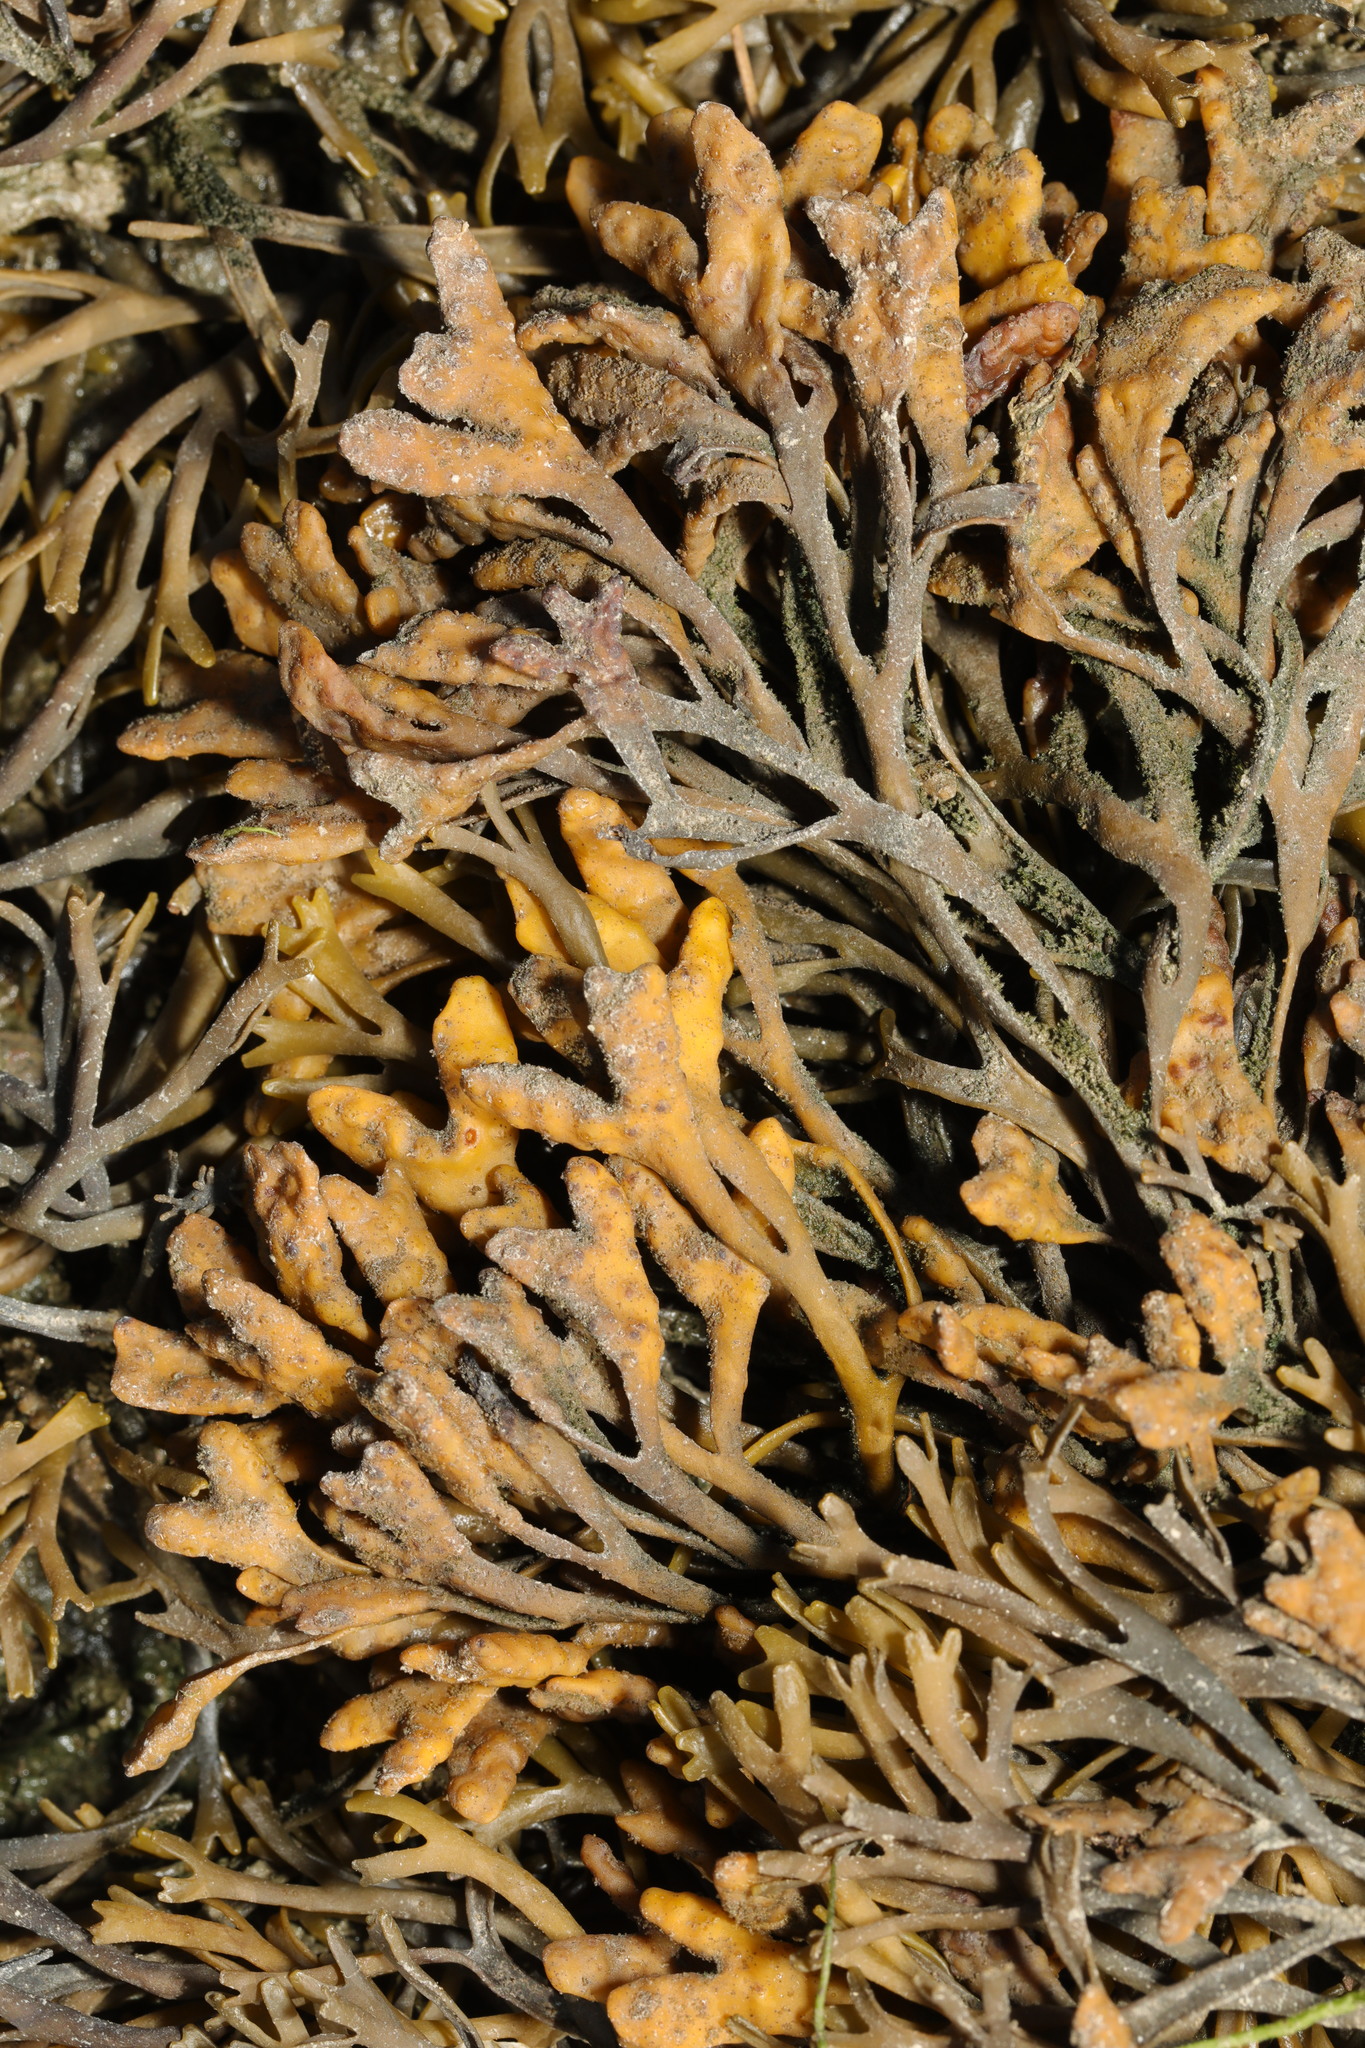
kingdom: Chromista
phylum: Ochrophyta
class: Phaeophyceae
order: Fucales
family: Fucaceae
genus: Pelvetia
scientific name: Pelvetia canaliculata
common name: Channelled wrack
